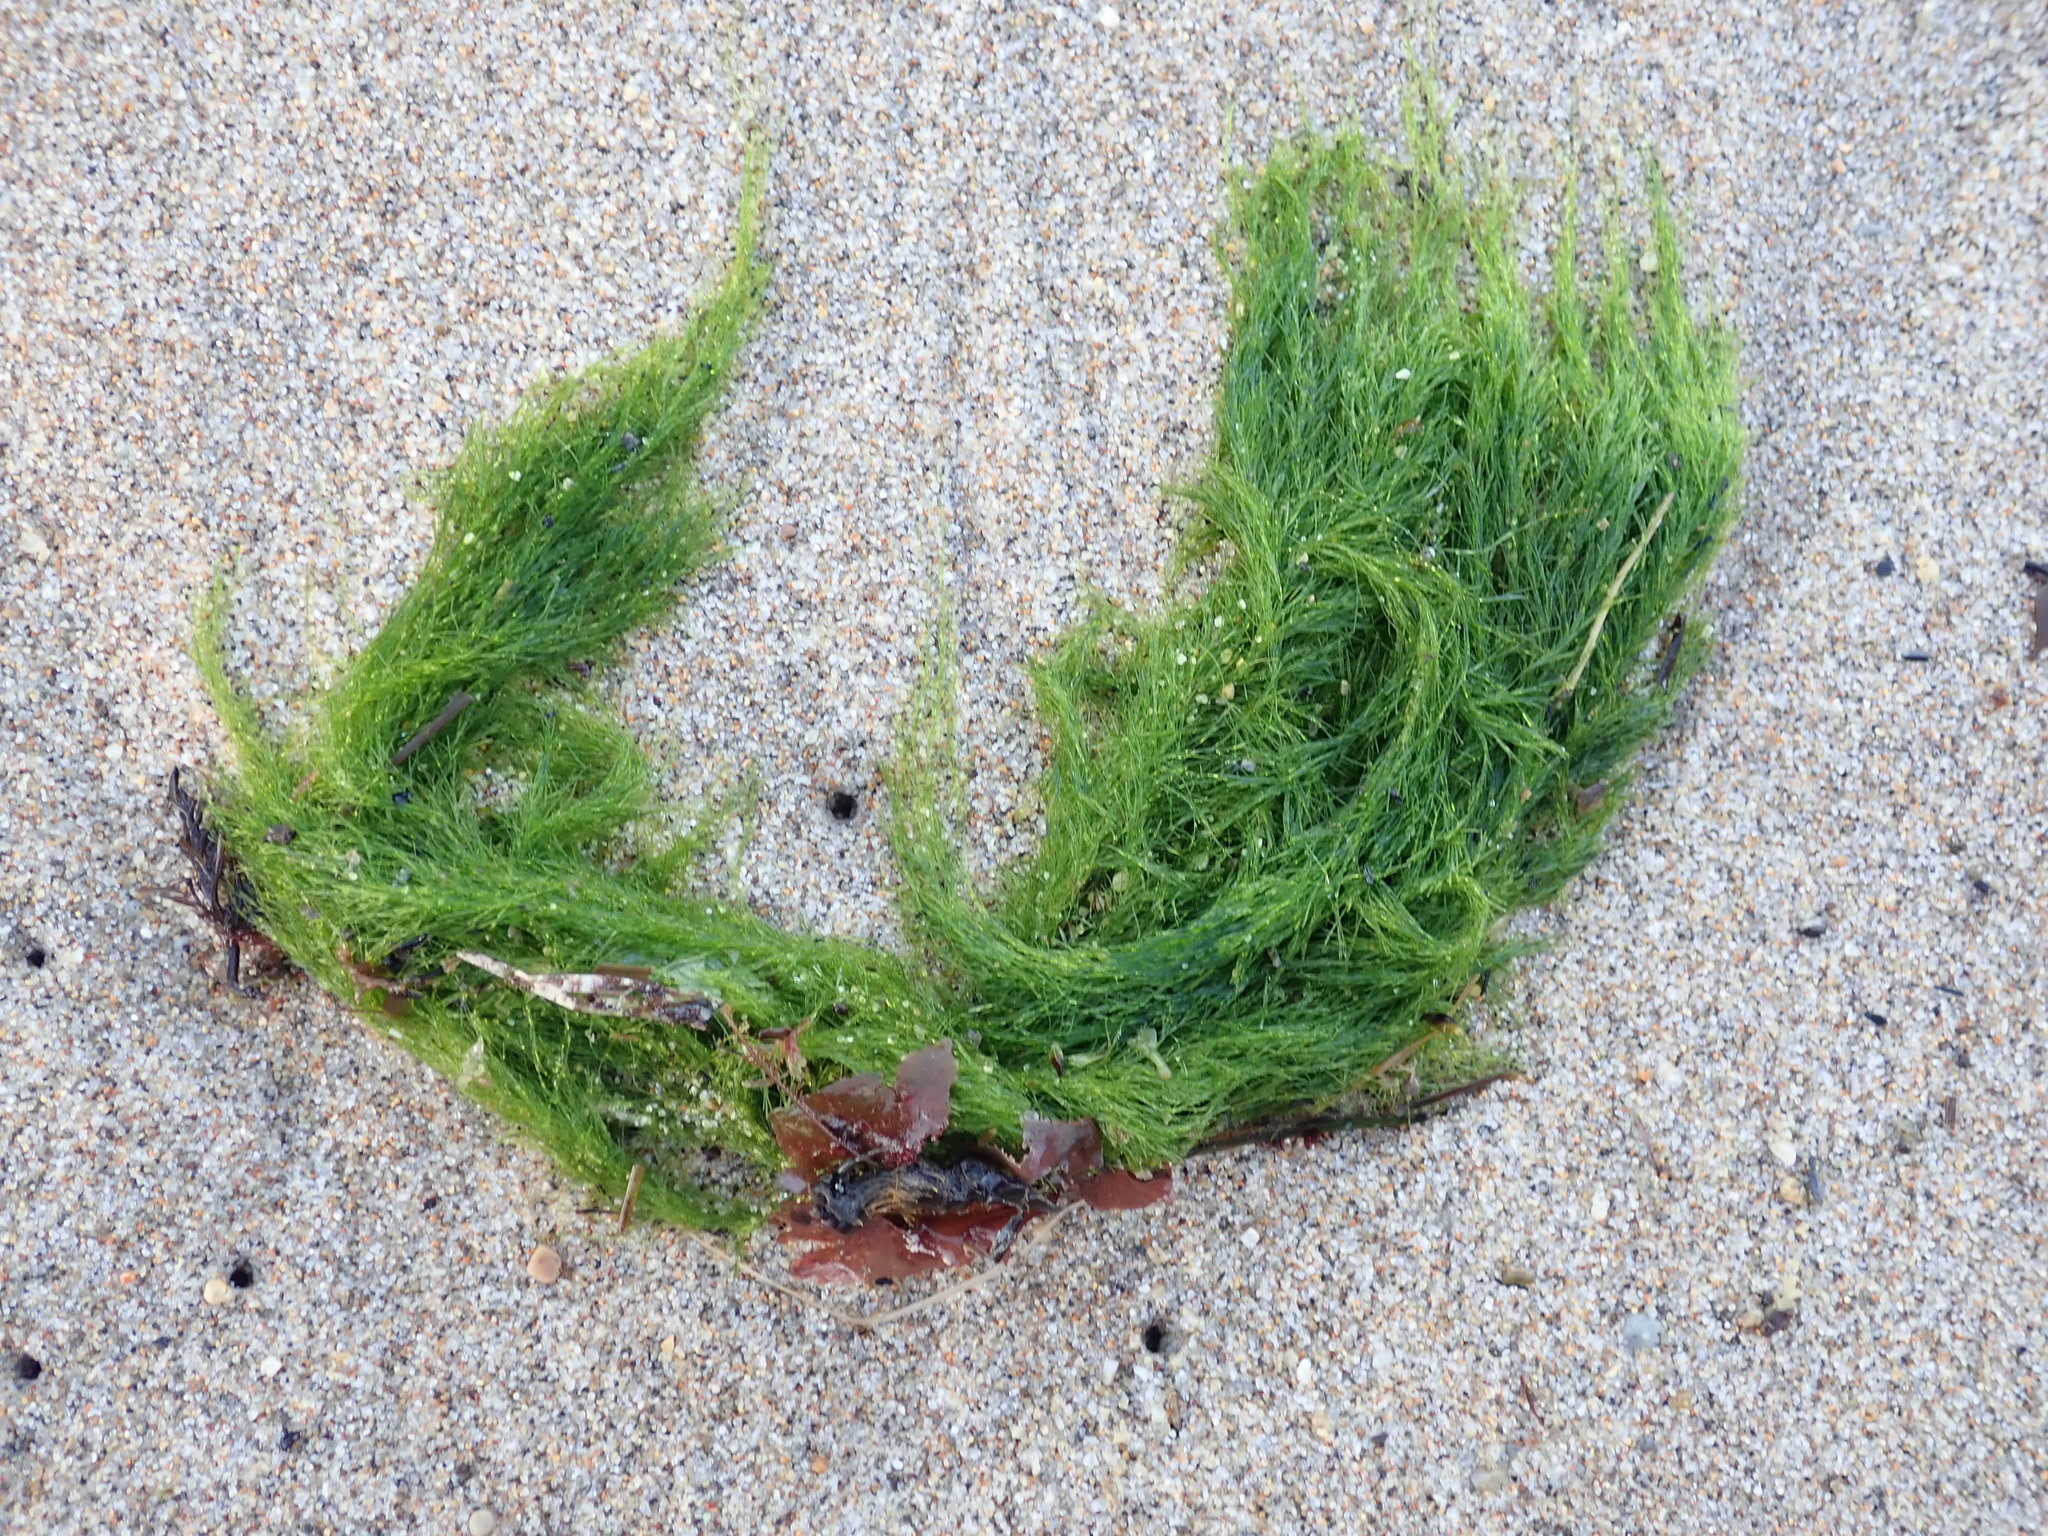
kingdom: Plantae
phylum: Chlorophyta
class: Ulvophyceae
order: Ulotrichales
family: Ulotrichaceae
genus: Acrosiphonia
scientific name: Acrosiphonia
